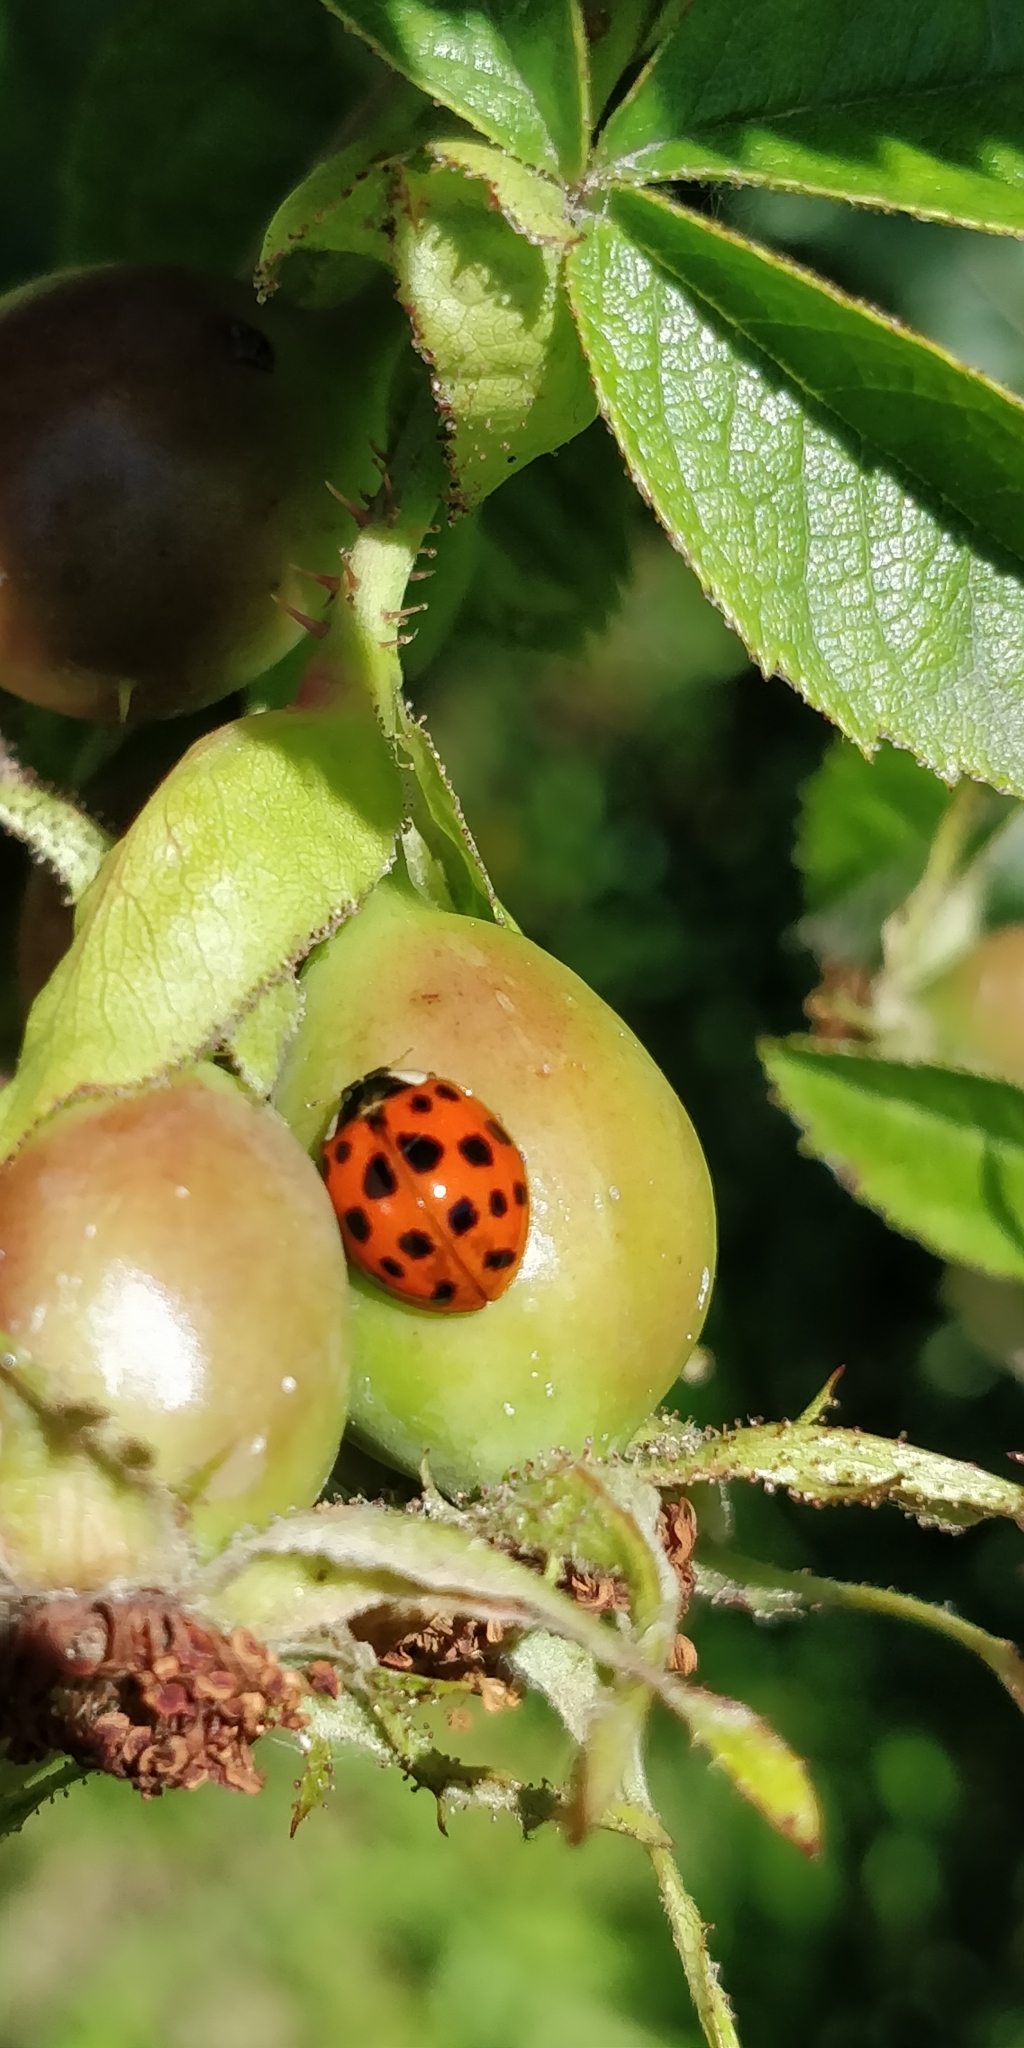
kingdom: Animalia
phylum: Arthropoda
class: Insecta
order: Coleoptera
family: Coccinellidae
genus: Harmonia
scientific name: Harmonia axyridis
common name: Harlequin ladybird
